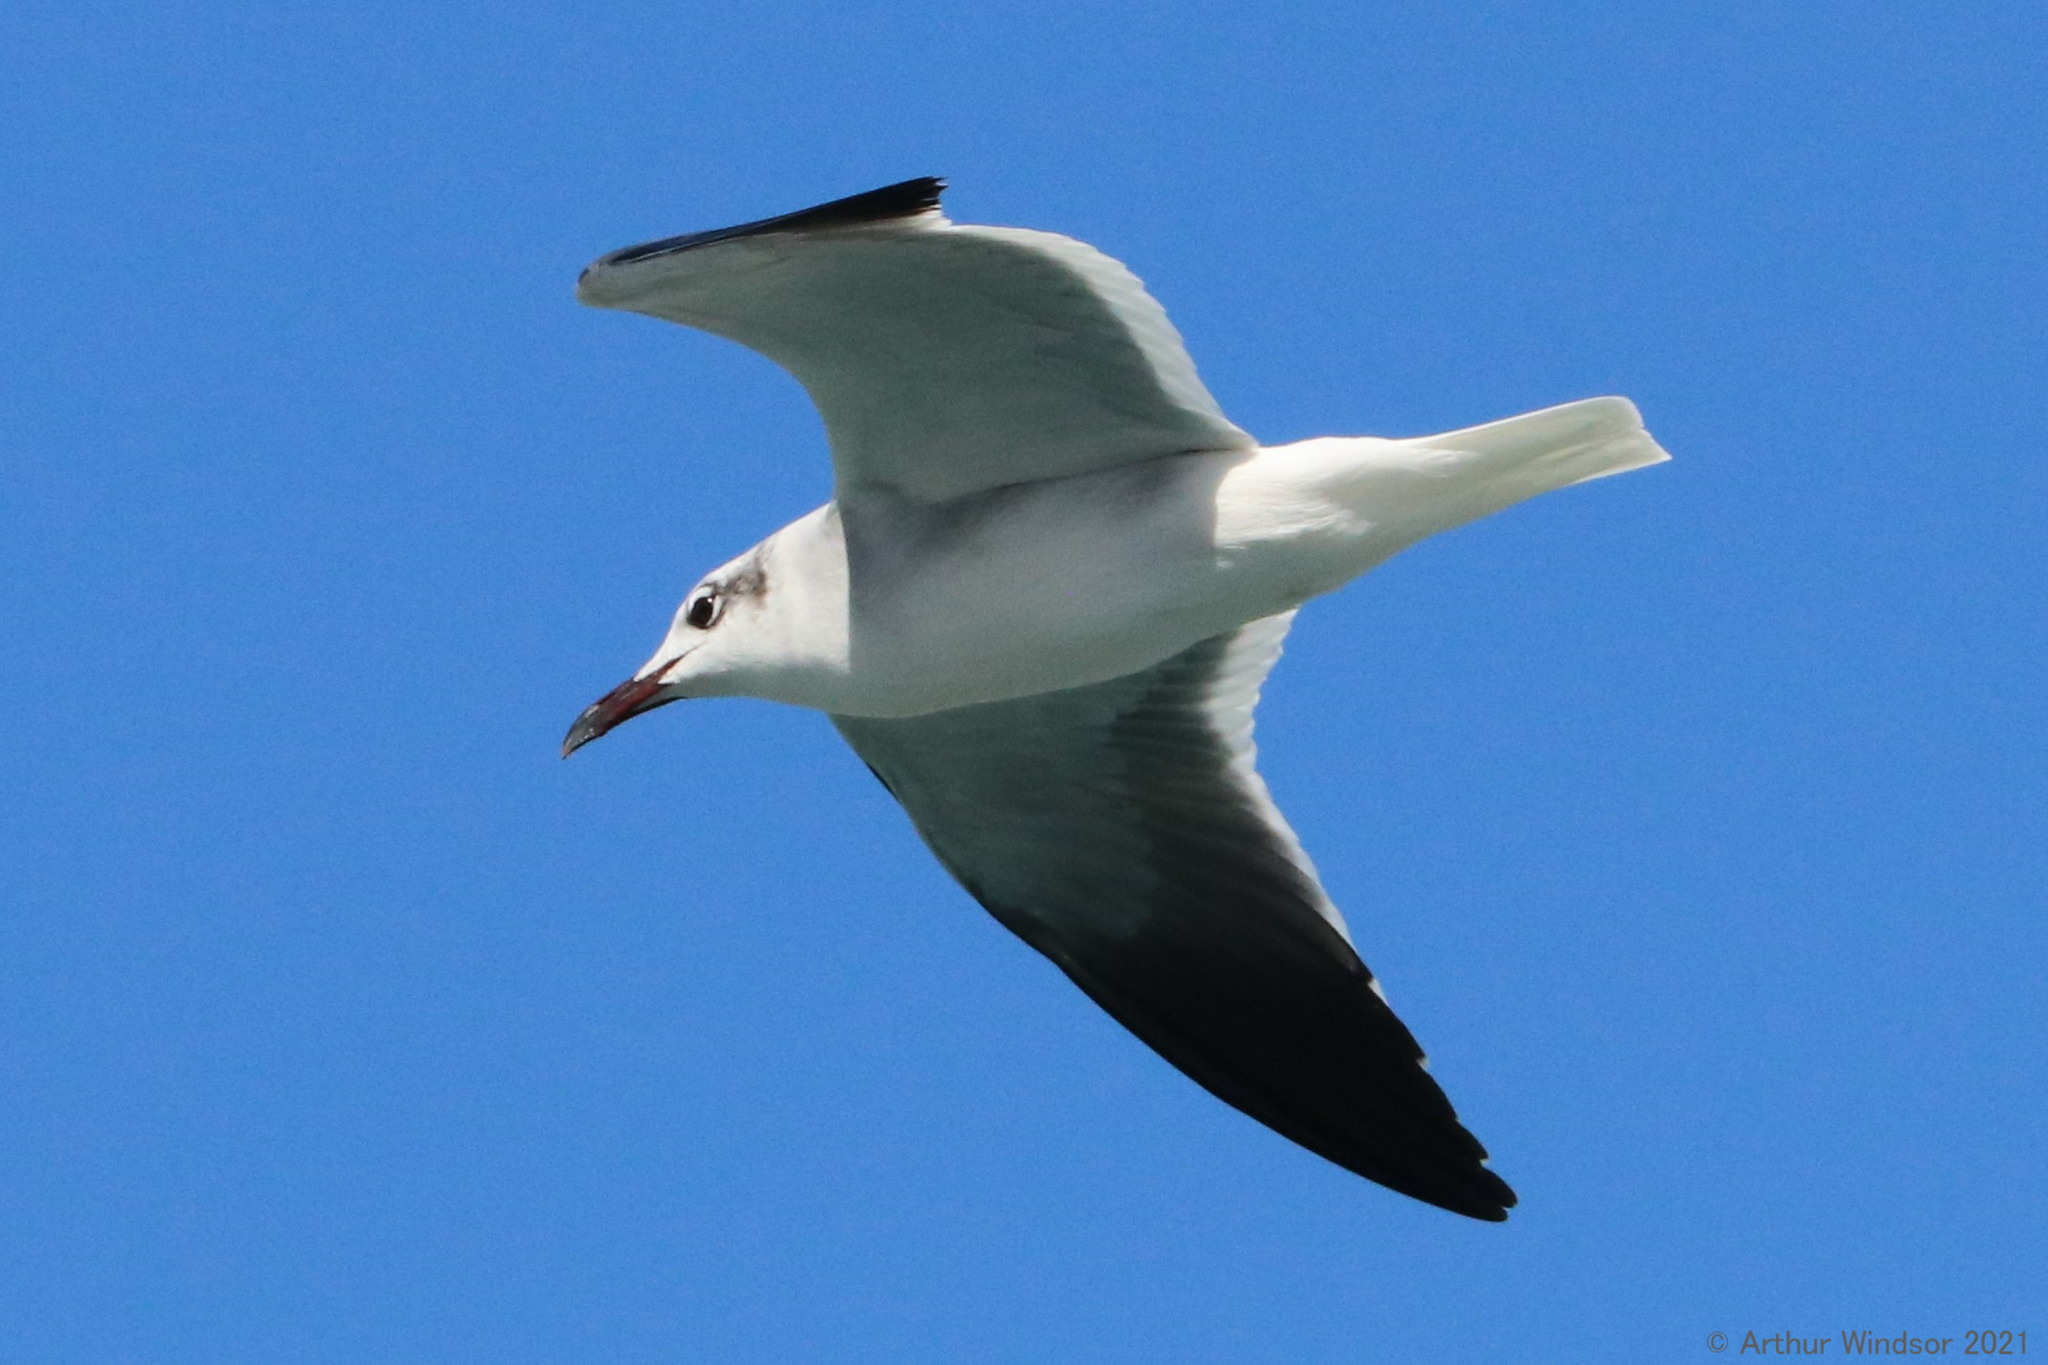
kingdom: Animalia
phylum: Chordata
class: Aves
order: Charadriiformes
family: Laridae
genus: Leucophaeus
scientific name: Leucophaeus atricilla
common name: Laughing gull
